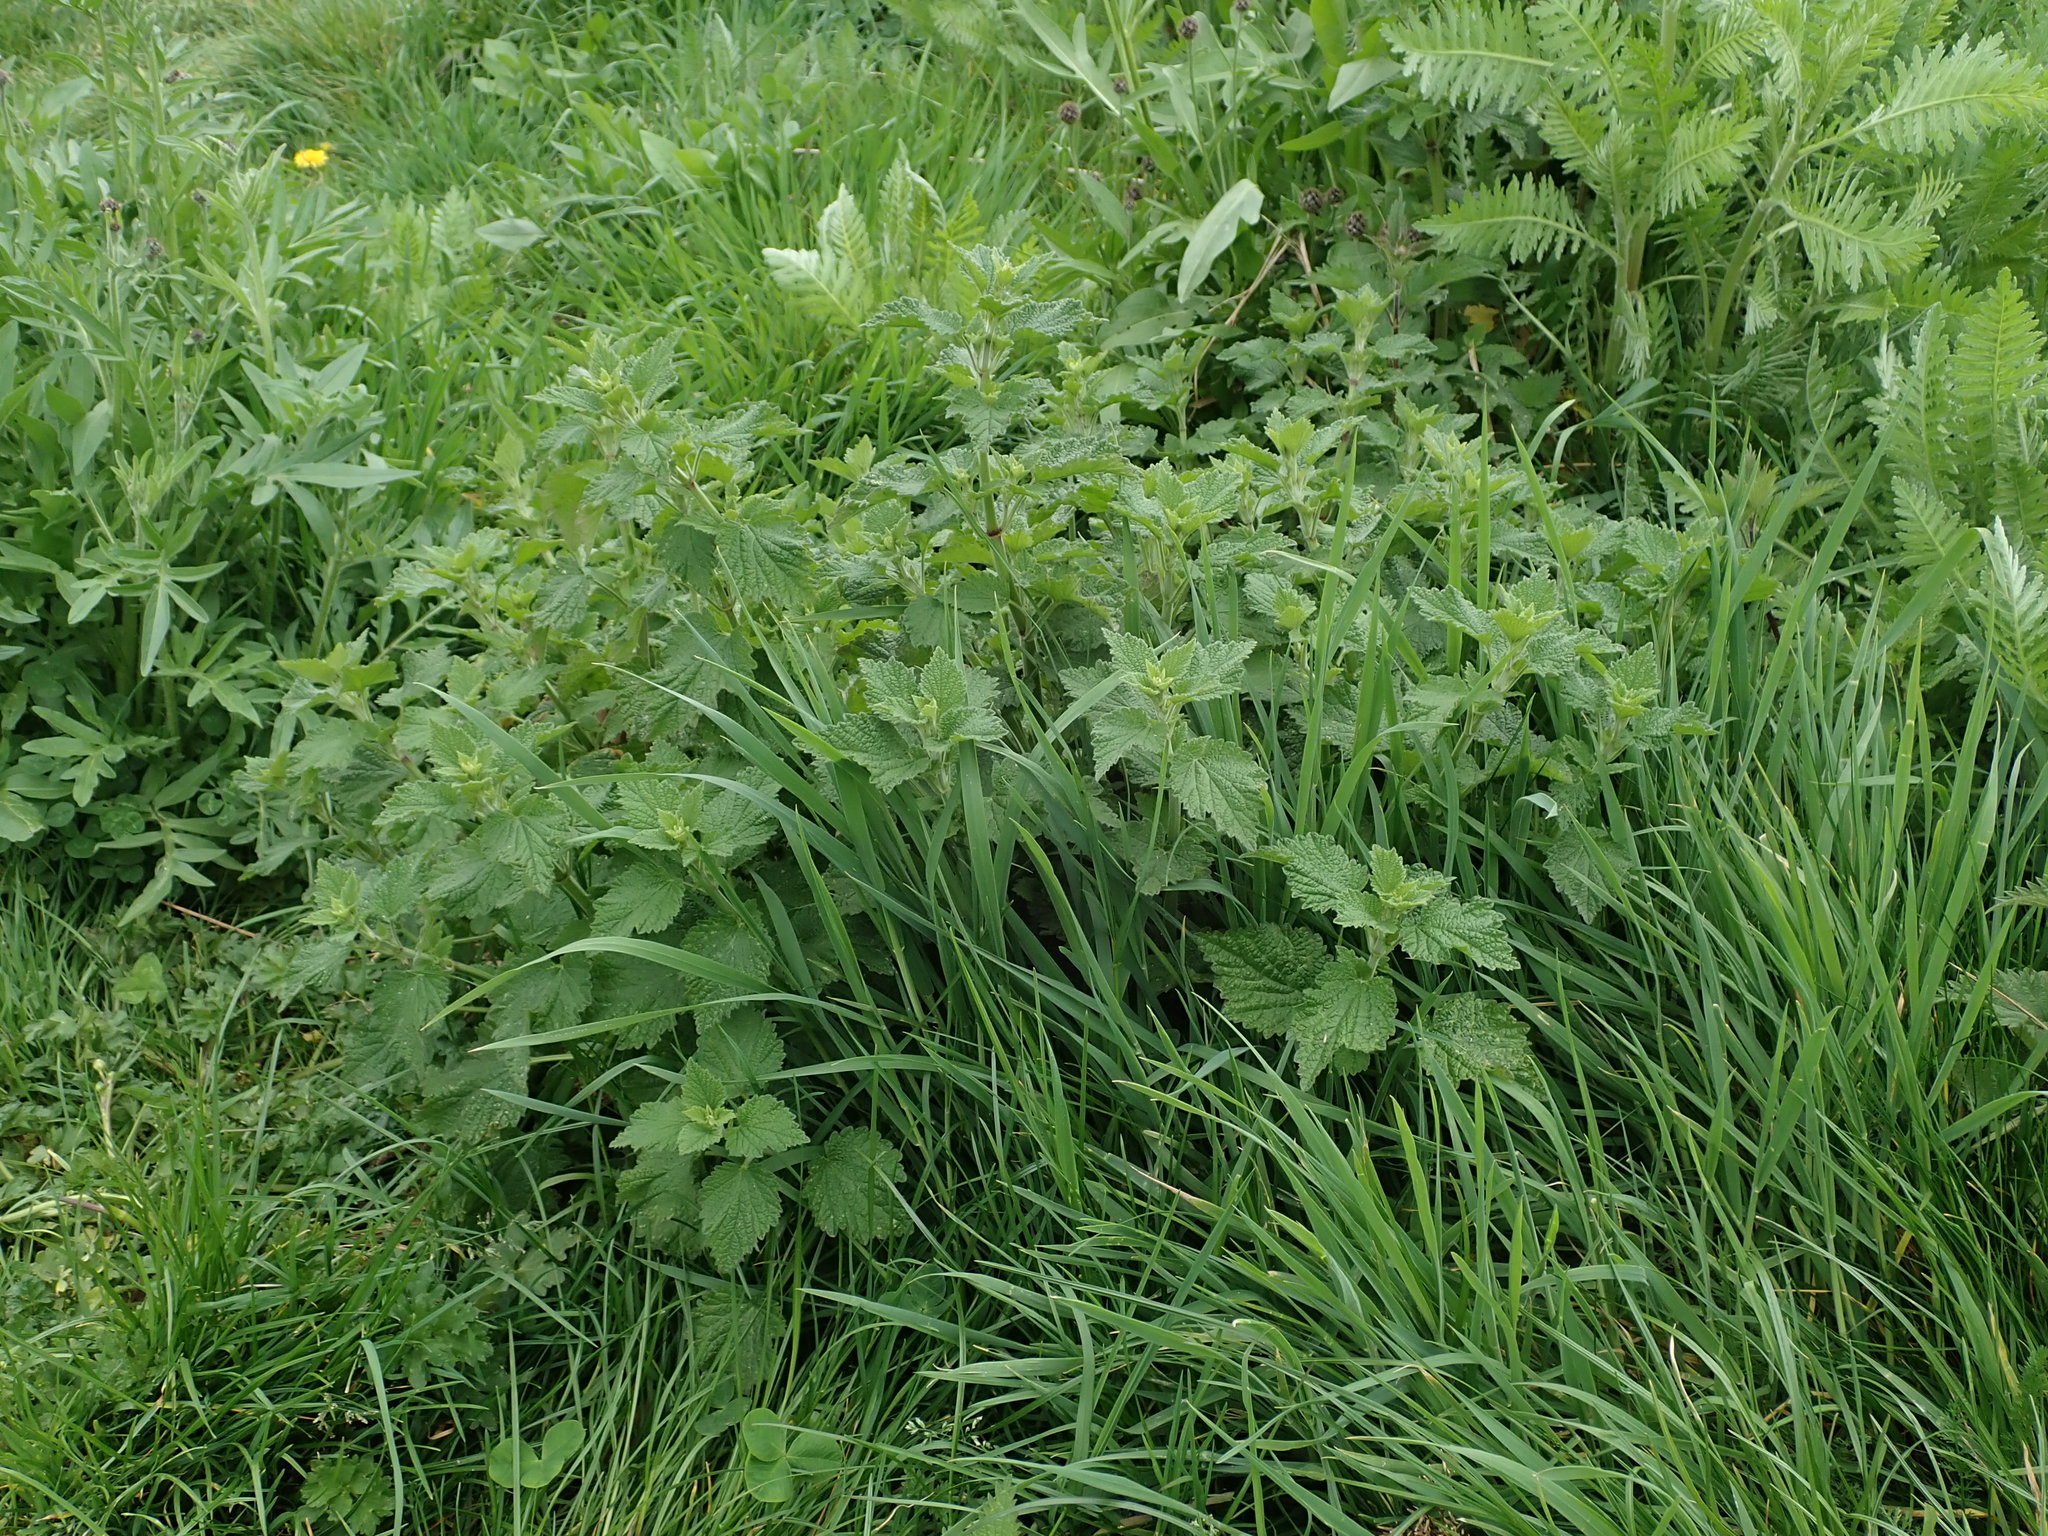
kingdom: Plantae
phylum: Tracheophyta
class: Magnoliopsida
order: Lamiales
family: Lamiaceae
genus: Ballota
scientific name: Ballota nigra
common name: Black horehound
